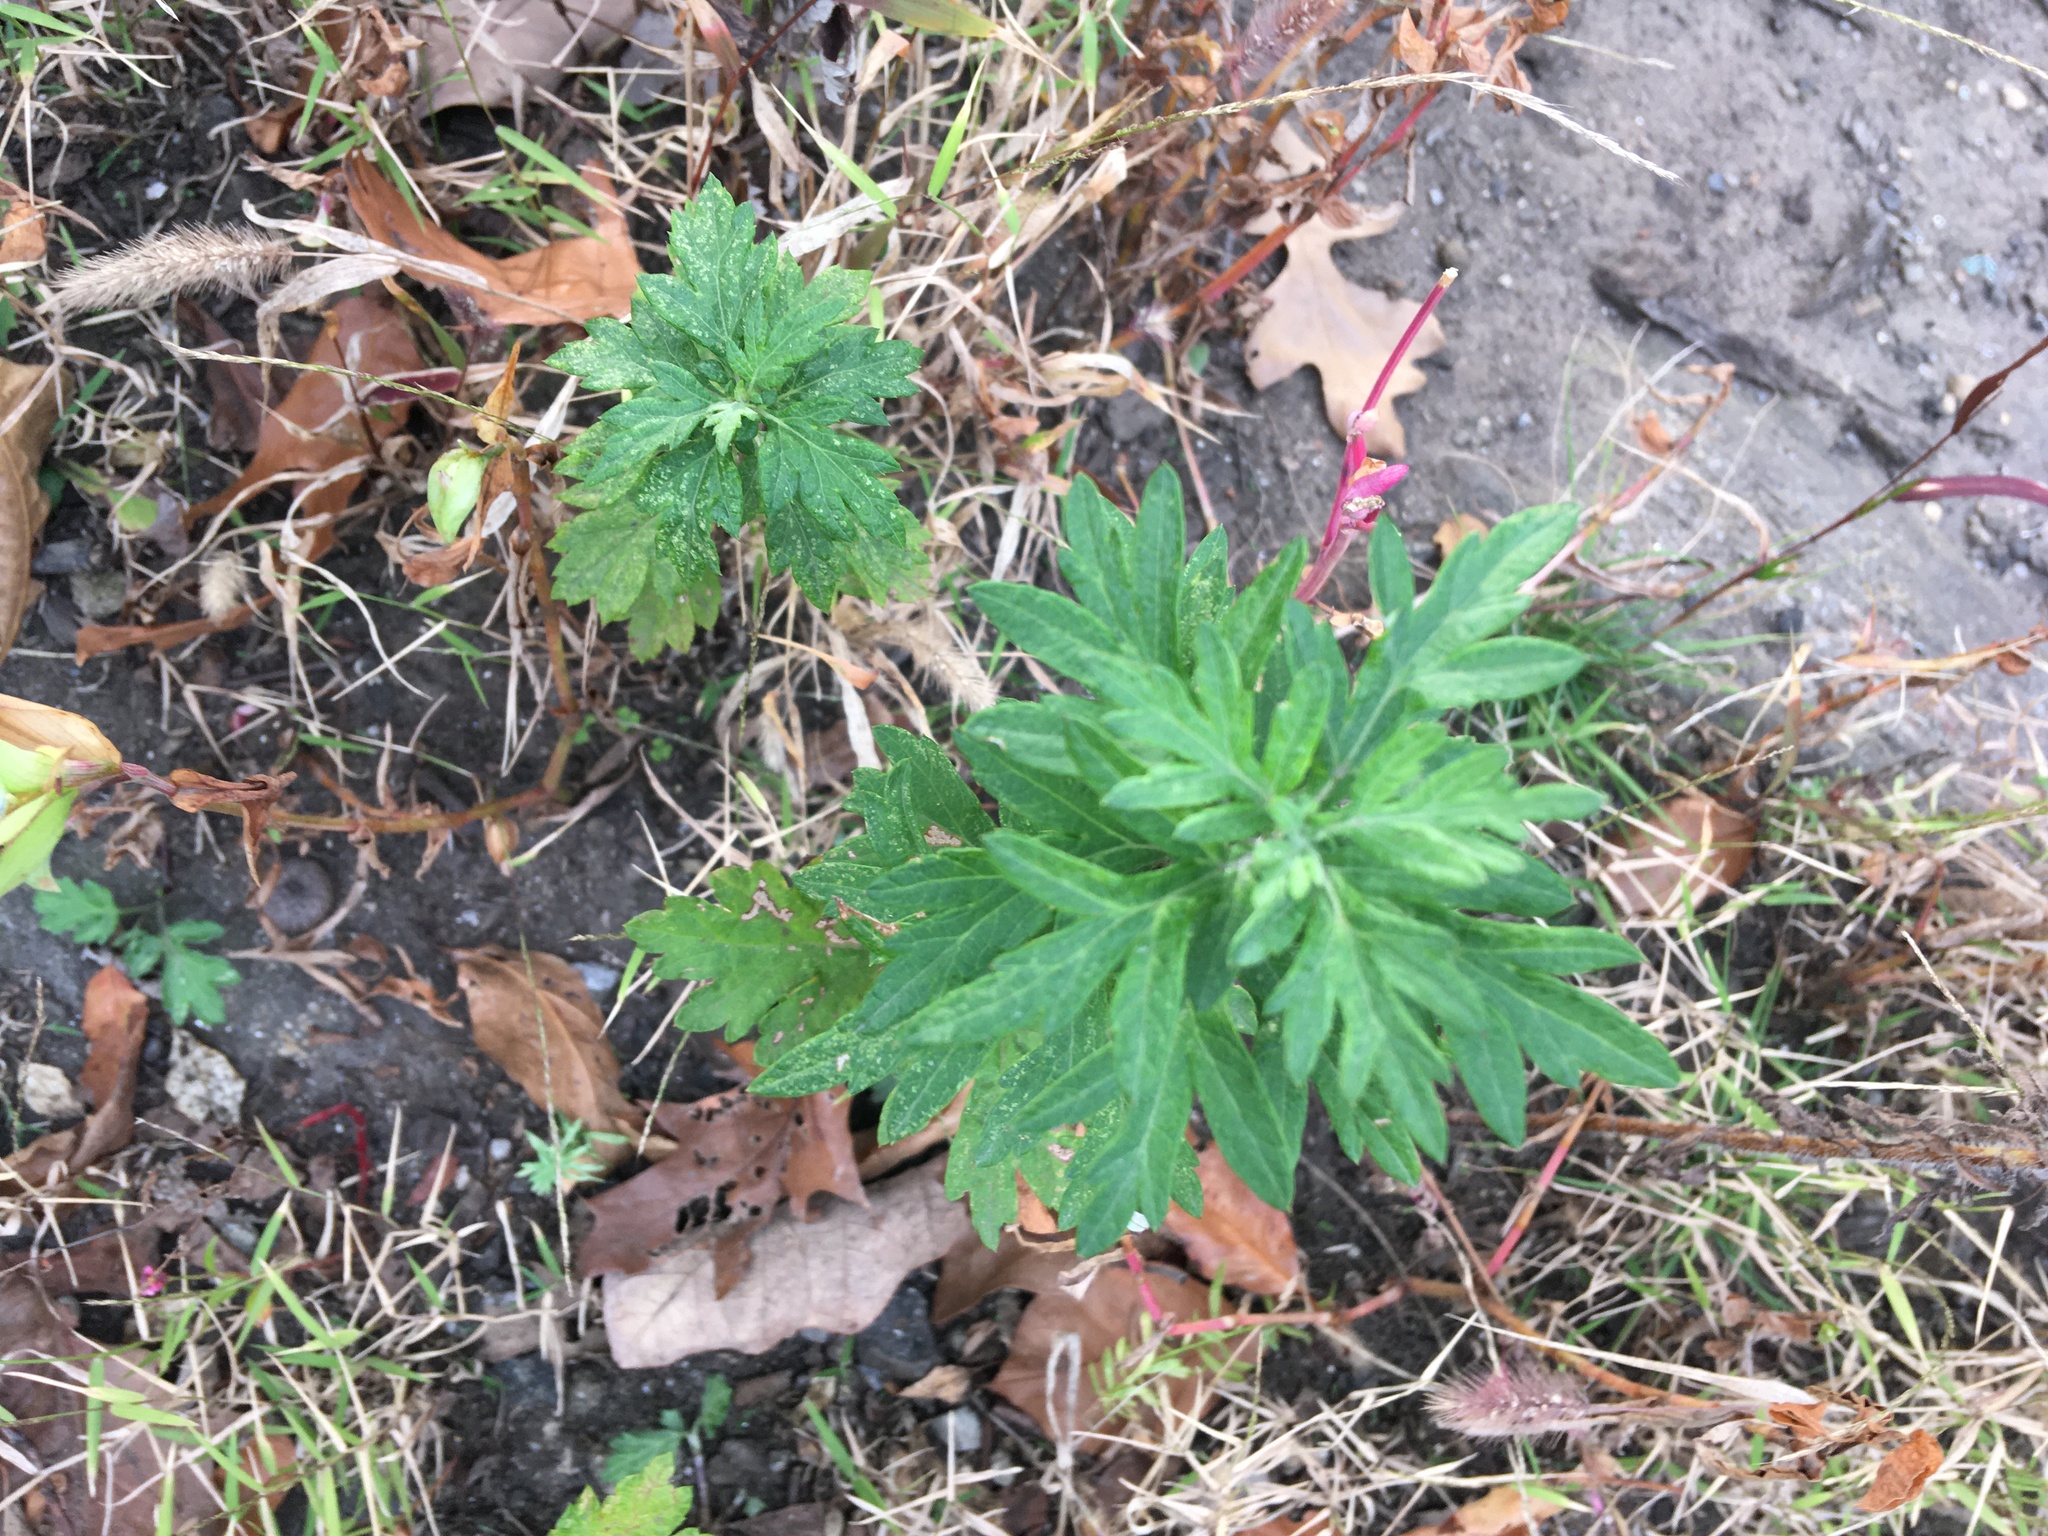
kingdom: Plantae
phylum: Tracheophyta
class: Magnoliopsida
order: Asterales
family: Asteraceae
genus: Artemisia
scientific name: Artemisia vulgaris
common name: Mugwort
